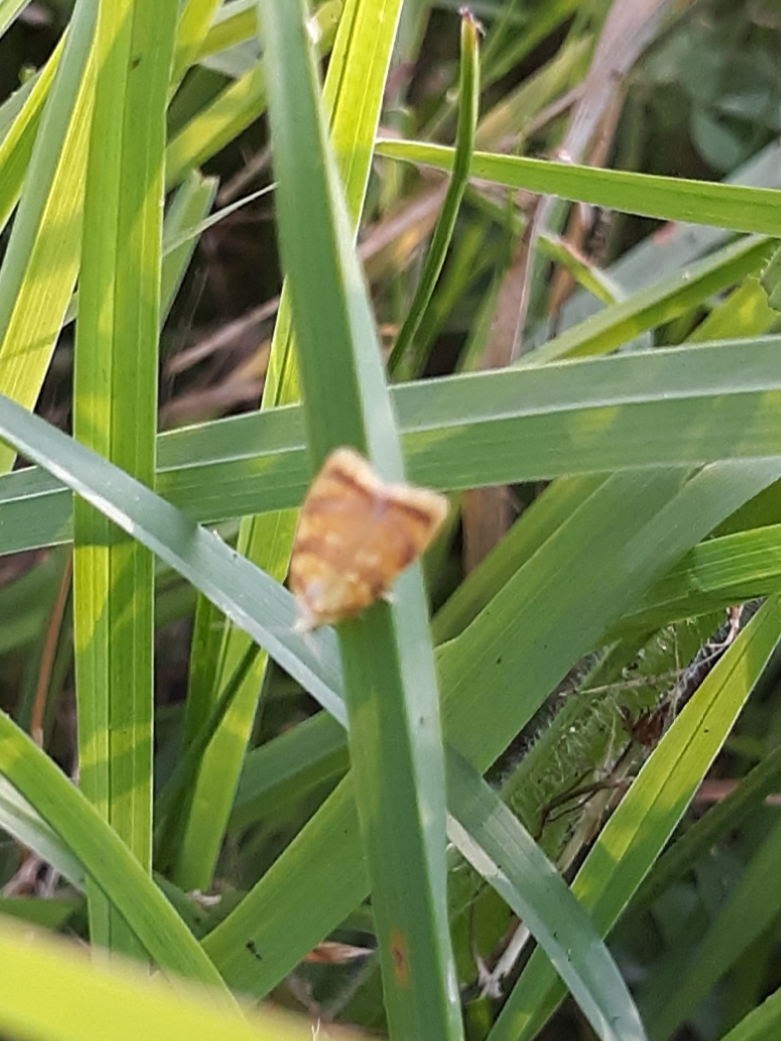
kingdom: Animalia
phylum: Arthropoda
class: Insecta
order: Lepidoptera
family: Tortricidae
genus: Acleris
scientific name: Acleris albicomana
